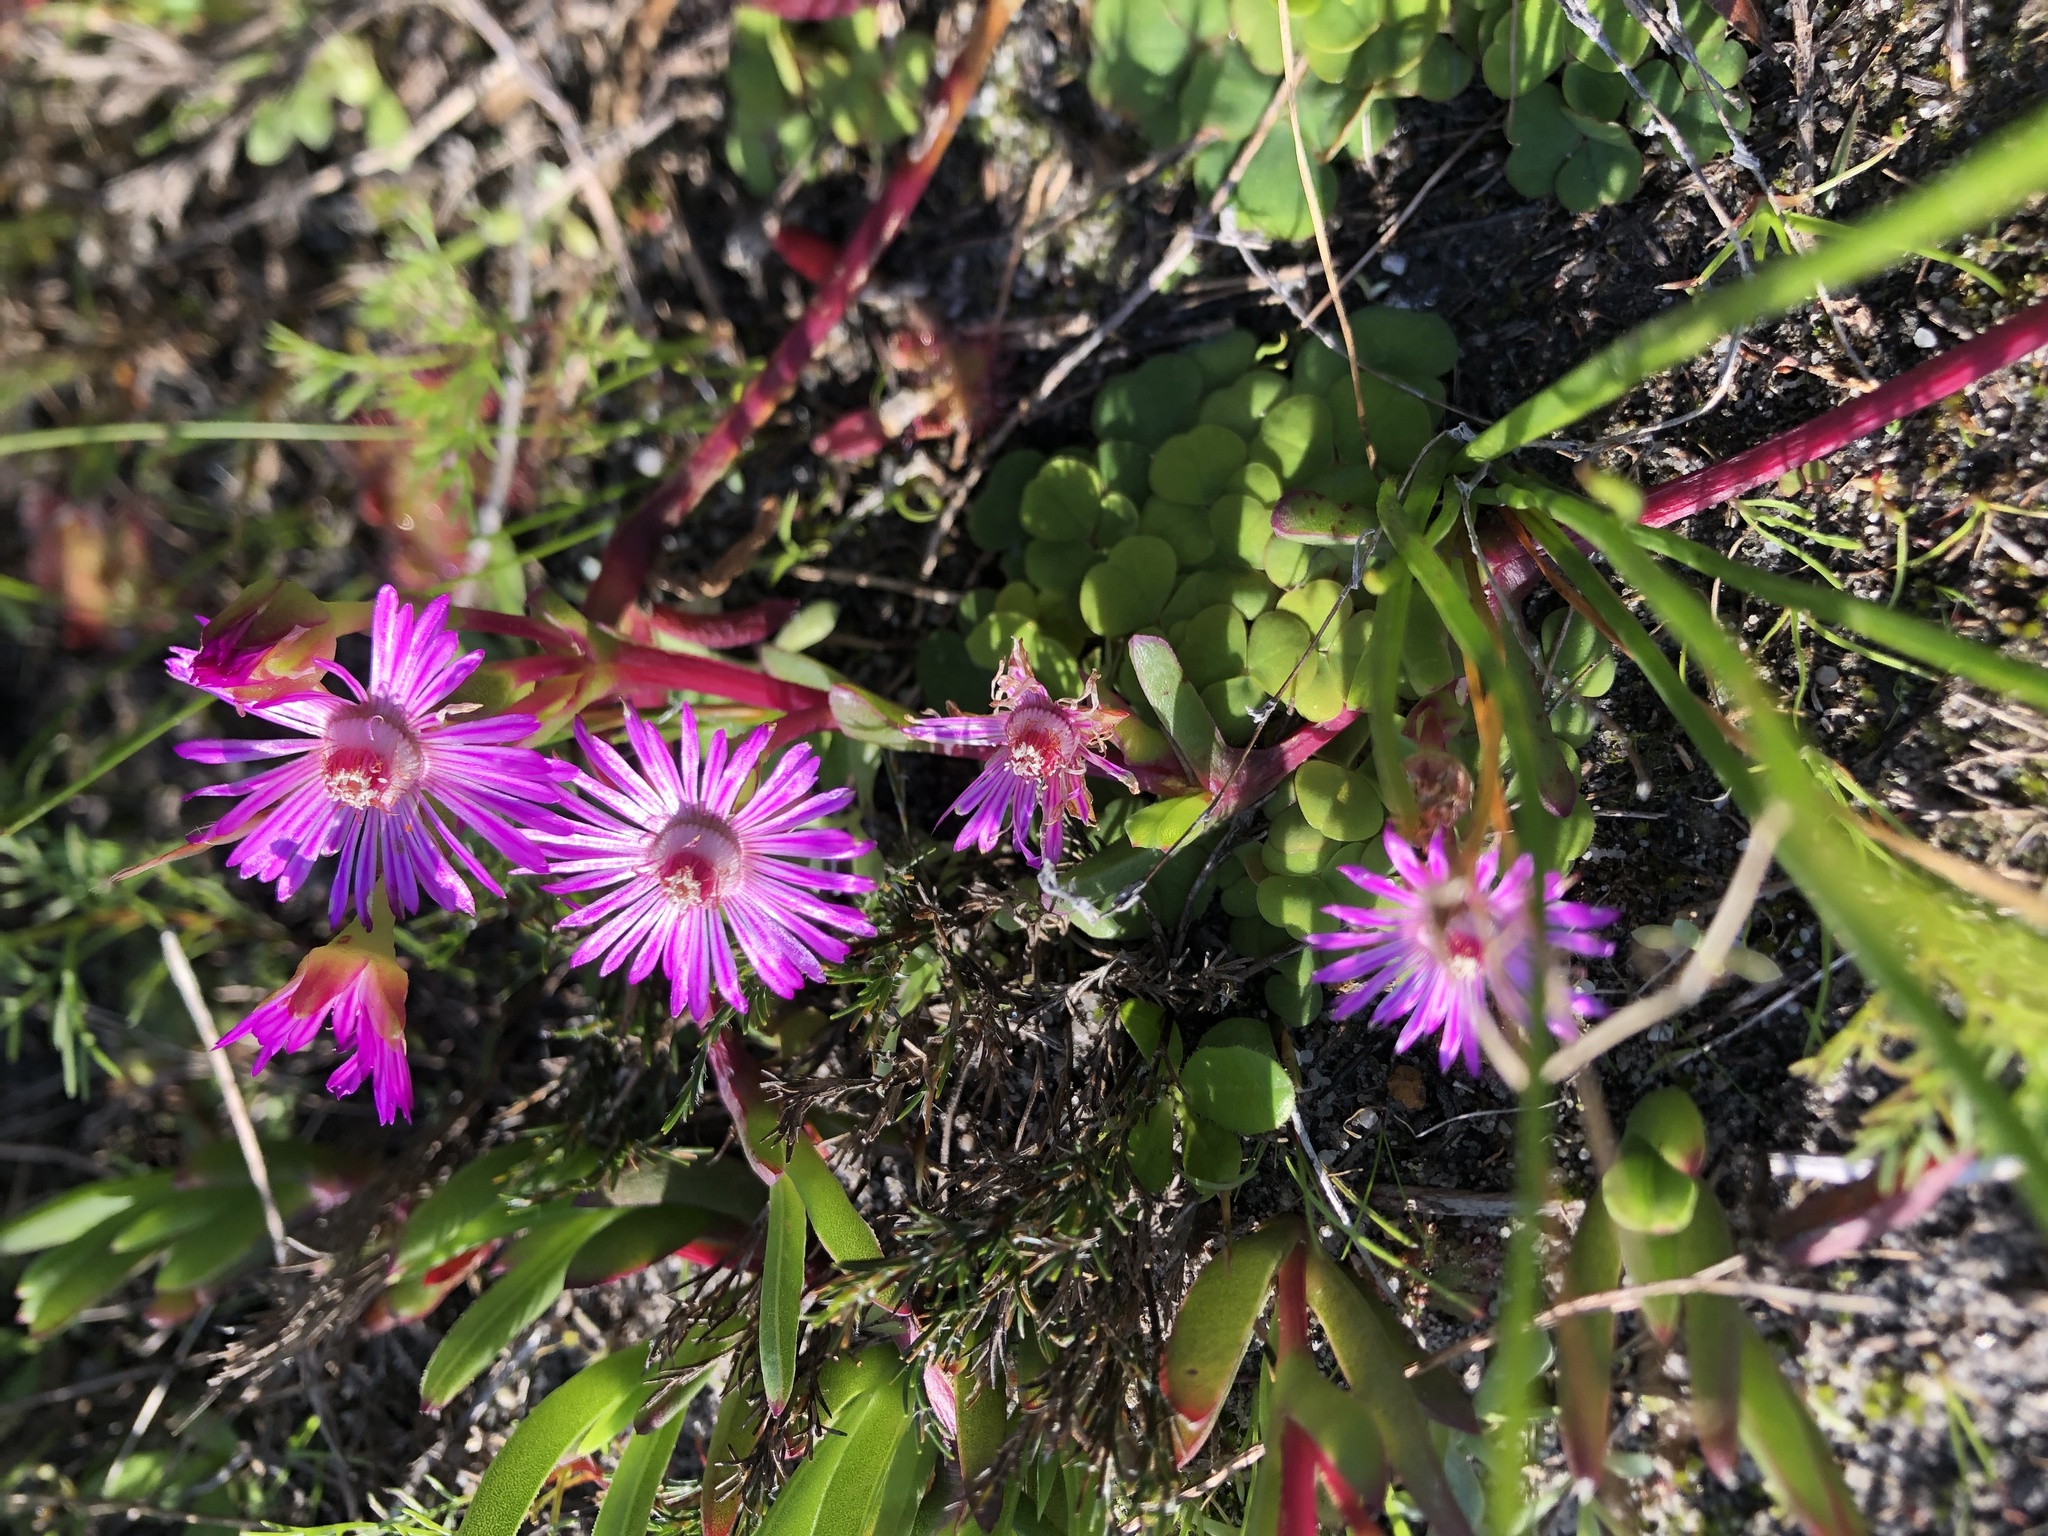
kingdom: Plantae
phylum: Tracheophyta
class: Magnoliopsida
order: Caryophyllales
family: Aizoaceae
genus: Ruschia
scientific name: Ruschia sarmentosa
